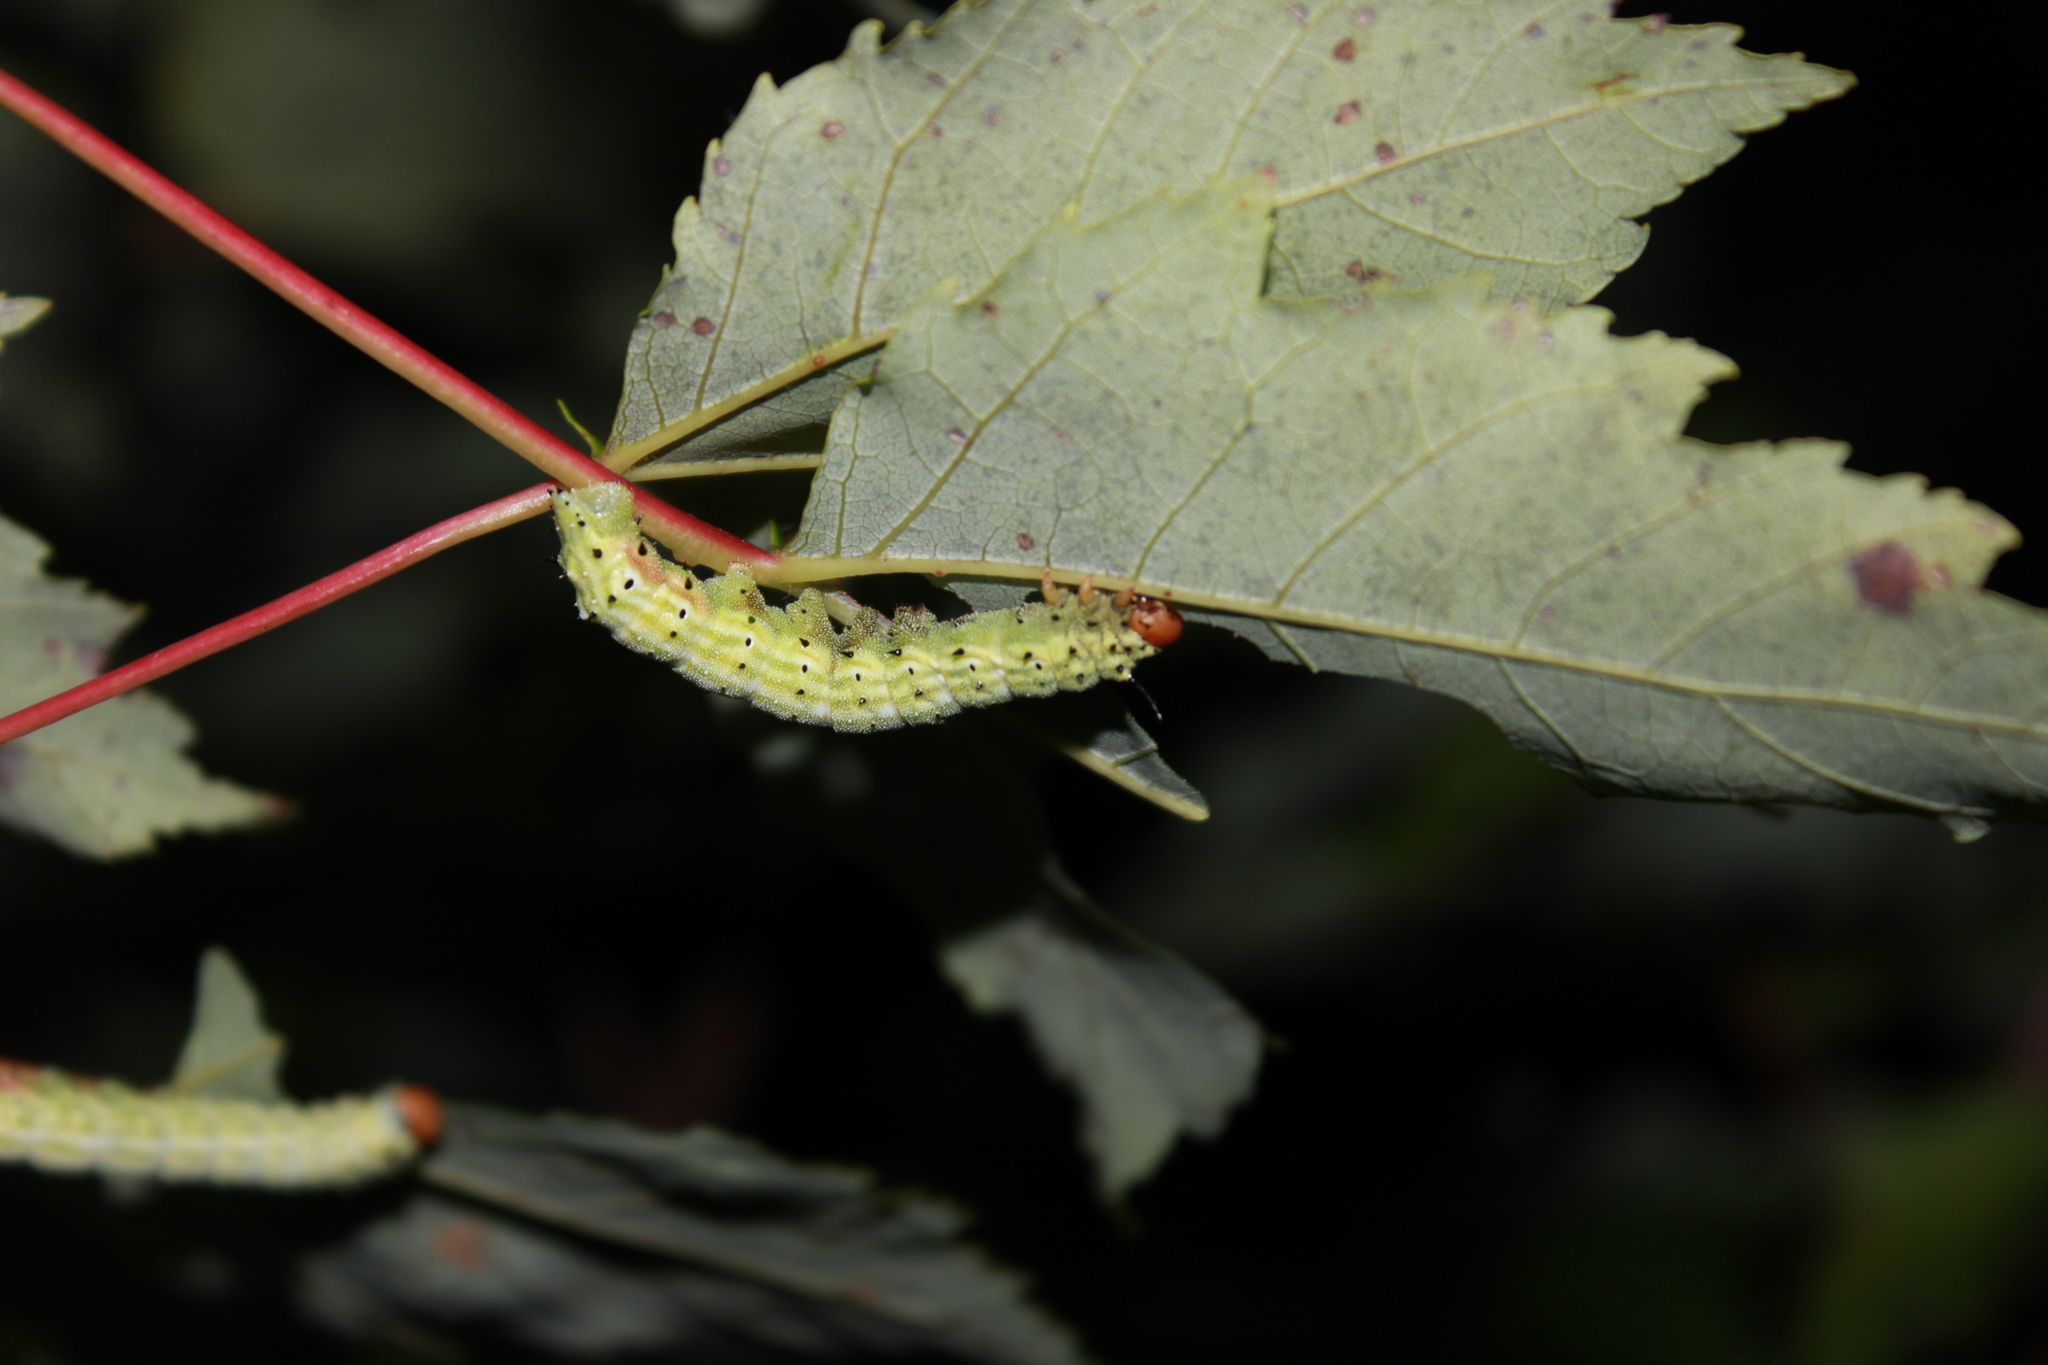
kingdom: Animalia
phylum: Arthropoda
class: Insecta
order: Lepidoptera
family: Saturniidae
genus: Dryocampa
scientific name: Dryocampa rubicunda
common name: Rosy maple moth
